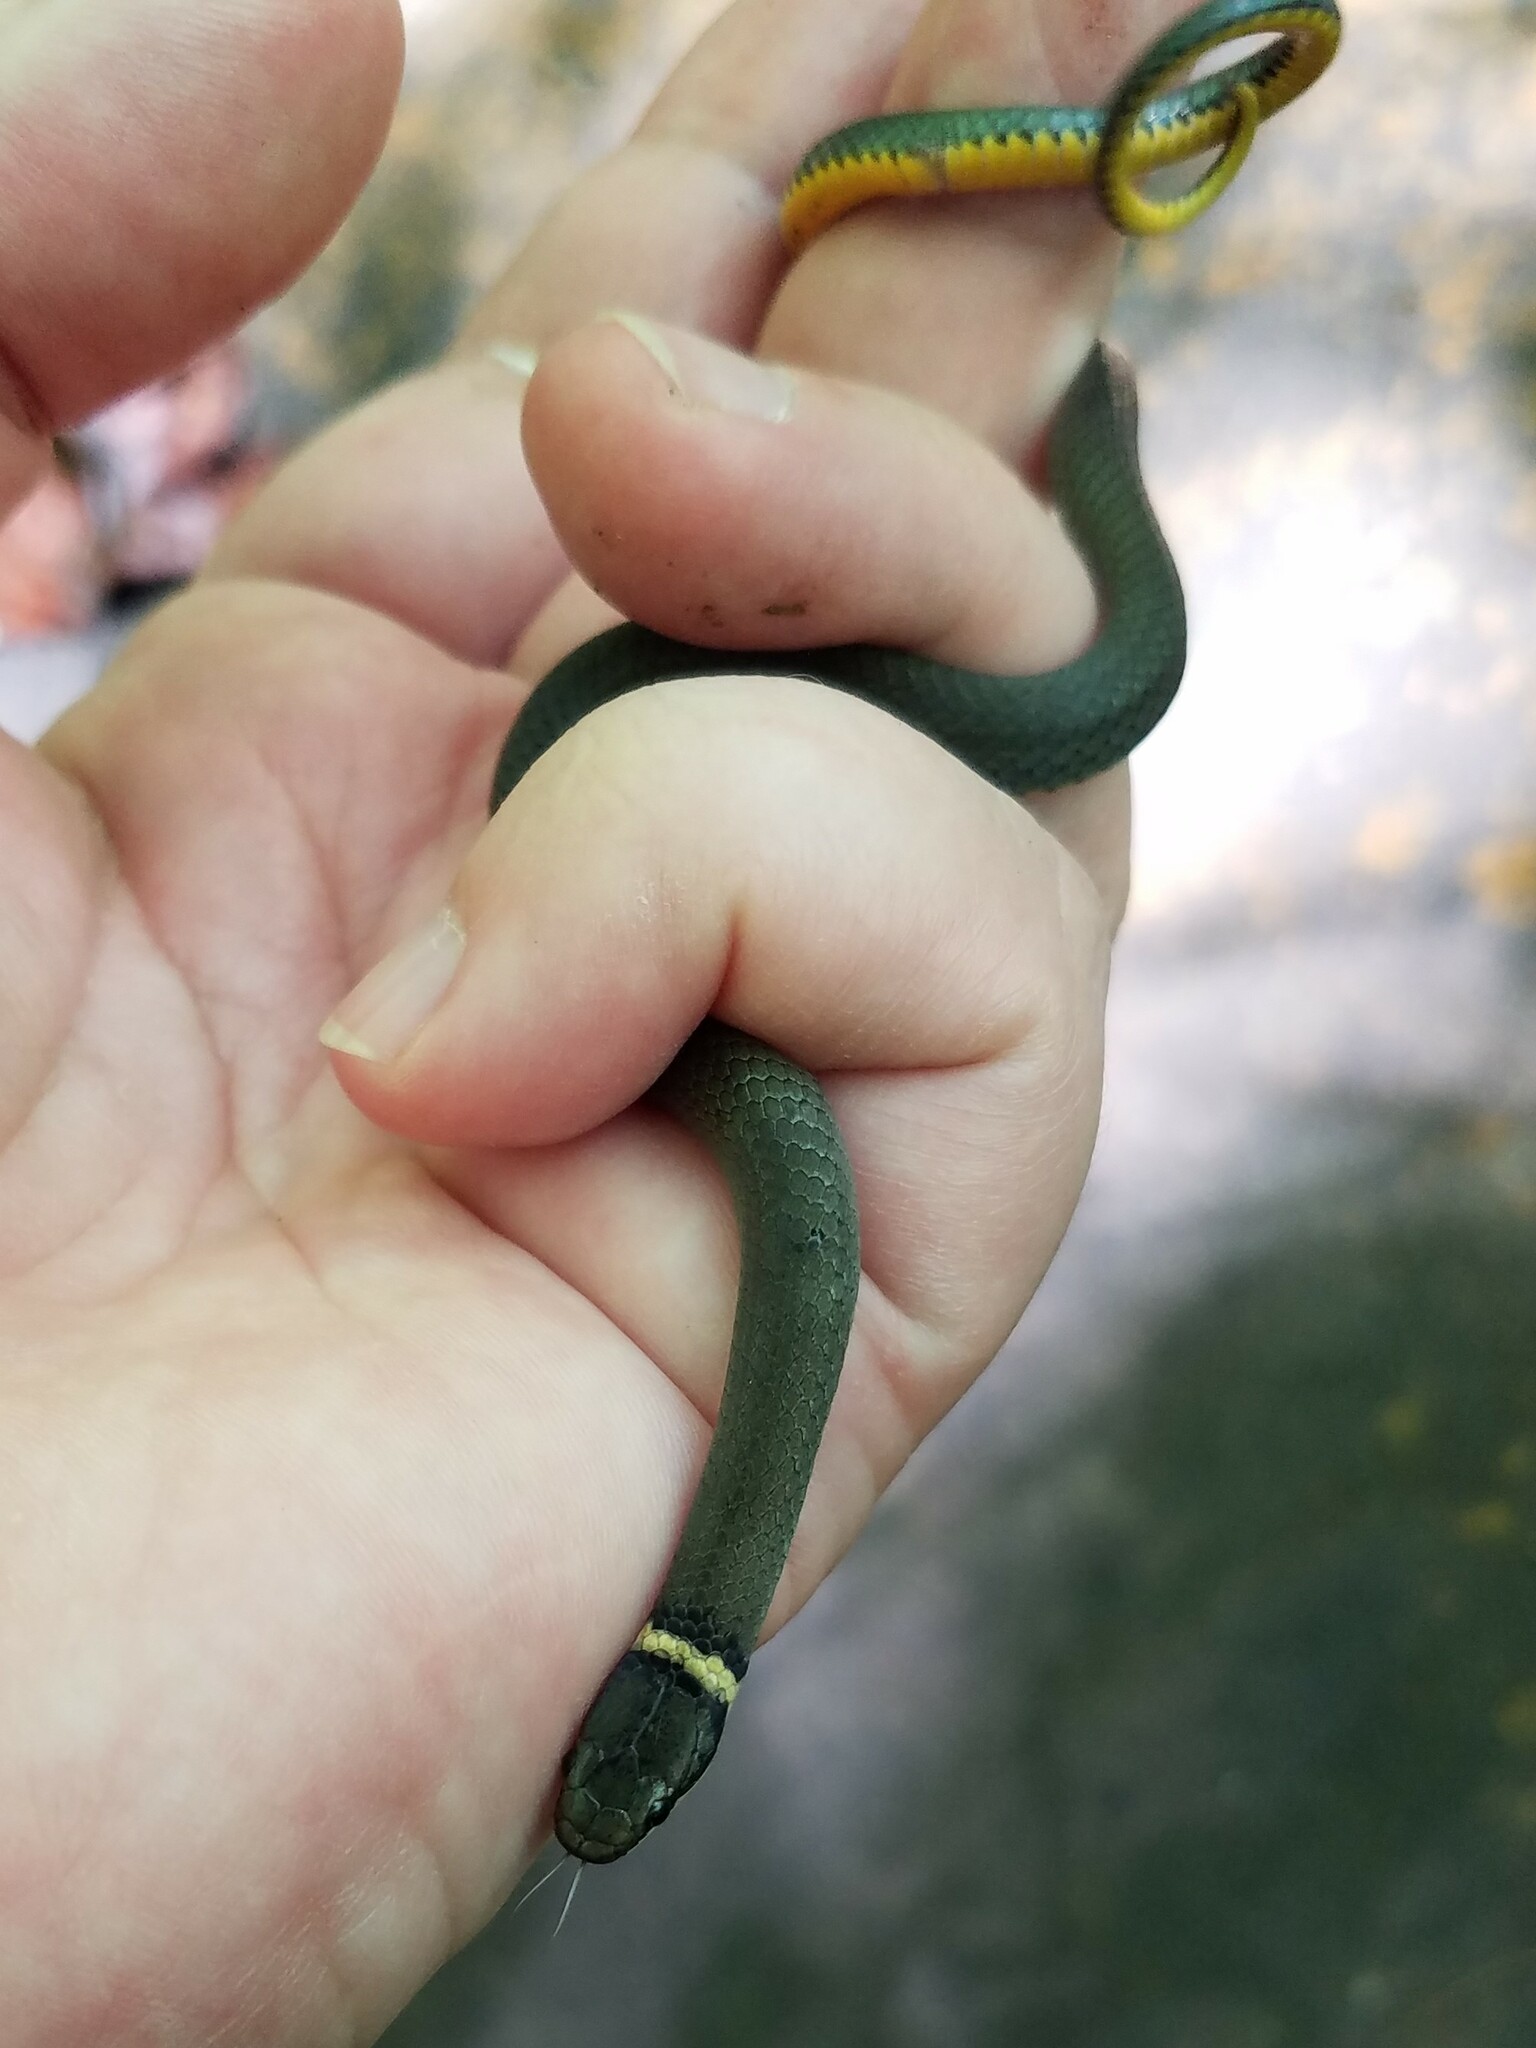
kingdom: Animalia
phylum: Chordata
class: Squamata
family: Colubridae
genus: Diadophis
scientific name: Diadophis punctatus
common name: Ringneck snake
